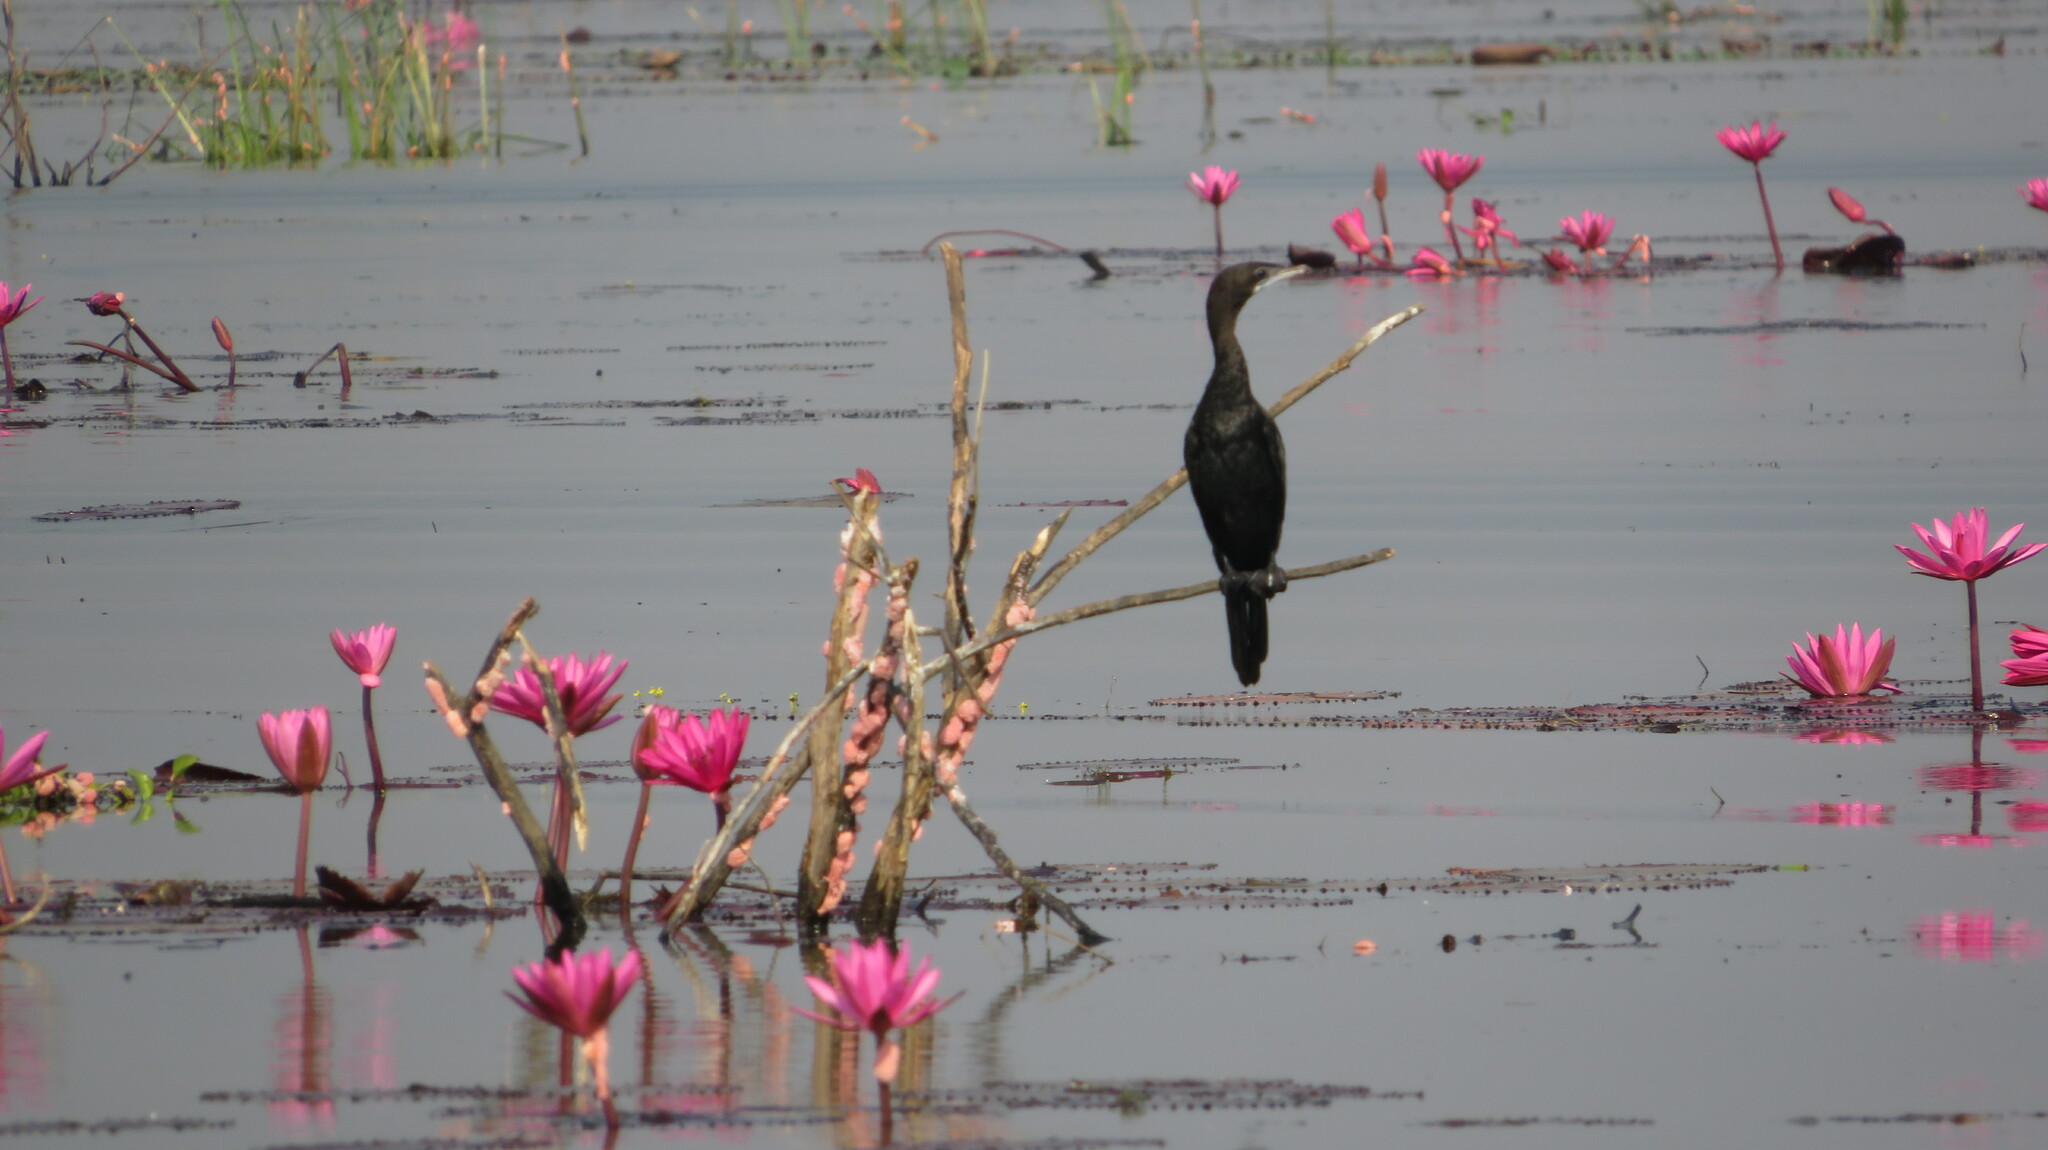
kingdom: Animalia
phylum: Chordata
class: Aves
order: Suliformes
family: Phalacrocoracidae
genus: Microcarbo
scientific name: Microcarbo niger
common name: Little cormorant
